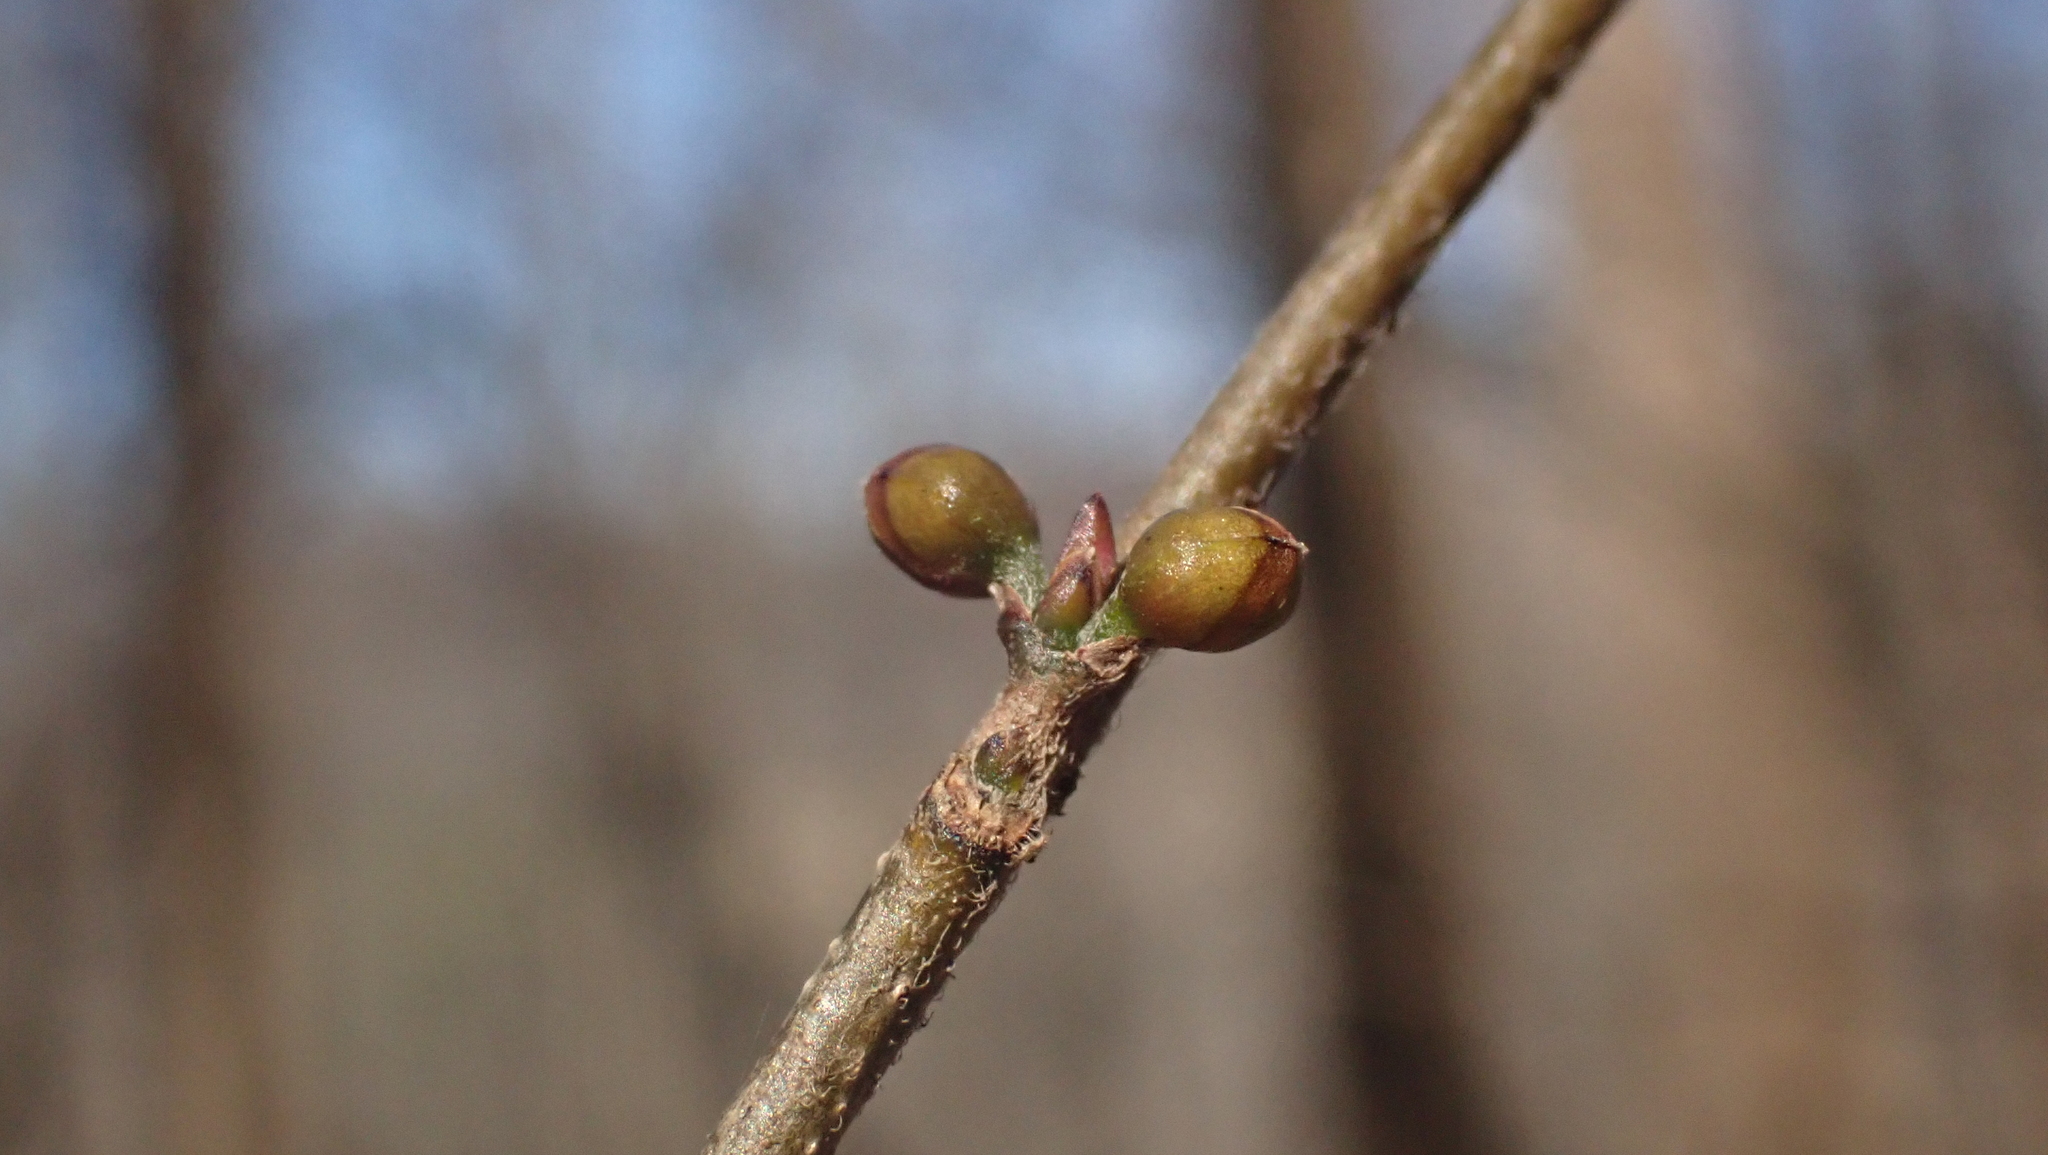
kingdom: Plantae
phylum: Tracheophyta
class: Magnoliopsida
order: Laurales
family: Lauraceae
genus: Lindera
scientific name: Lindera benzoin
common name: Spicebush
